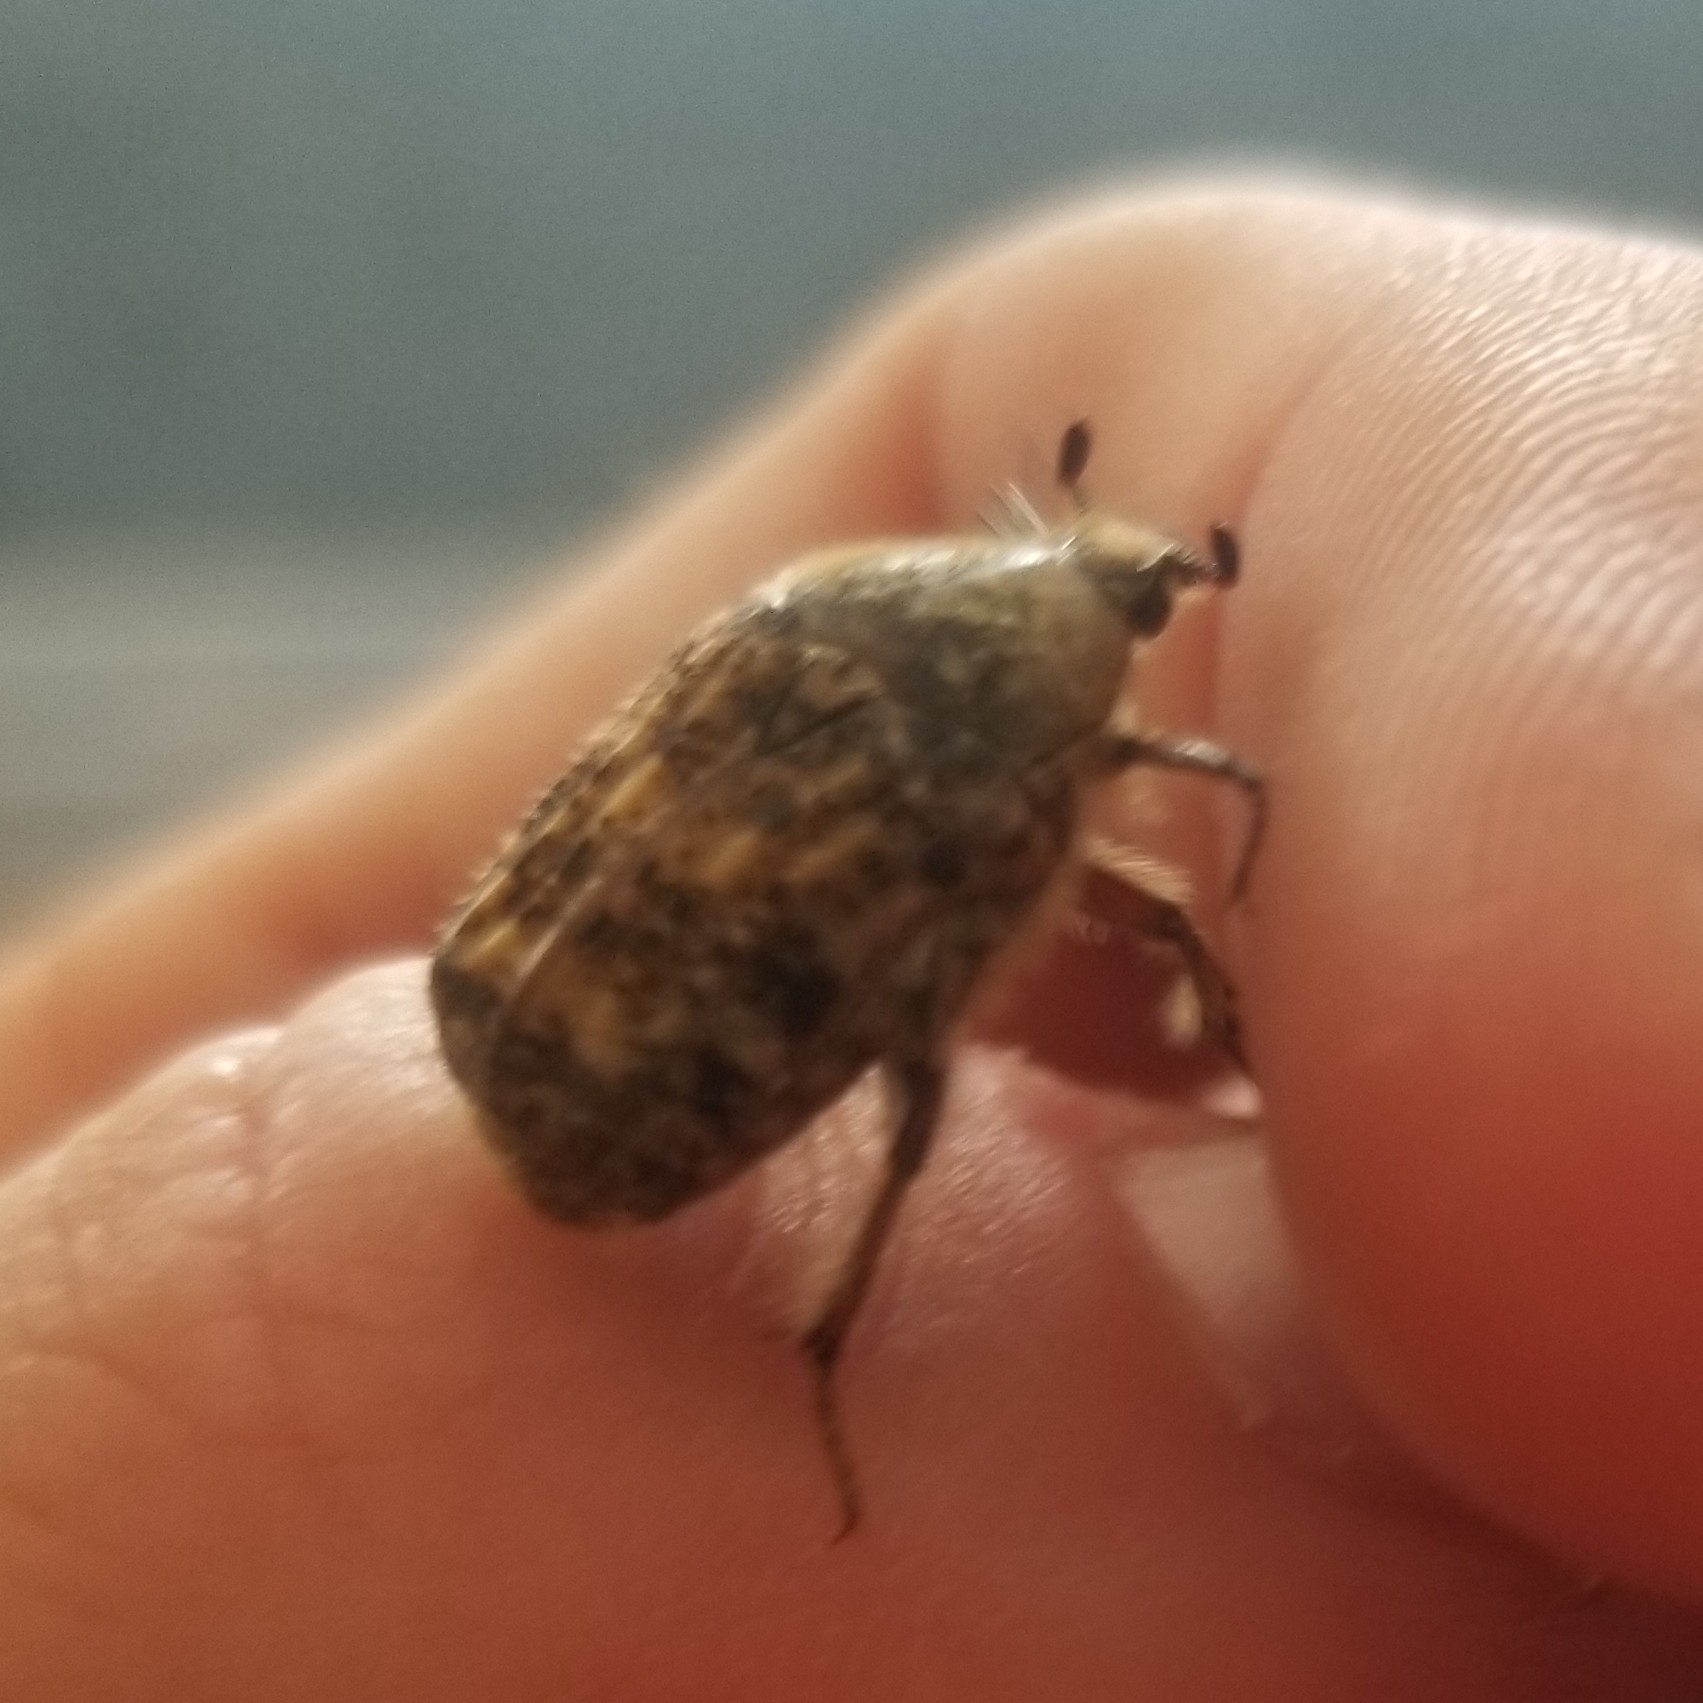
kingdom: Animalia
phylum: Arthropoda
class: Insecta
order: Coleoptera
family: Scarabaeidae
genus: Euphoria
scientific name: Euphoria inda
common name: Bumble flower beetle
